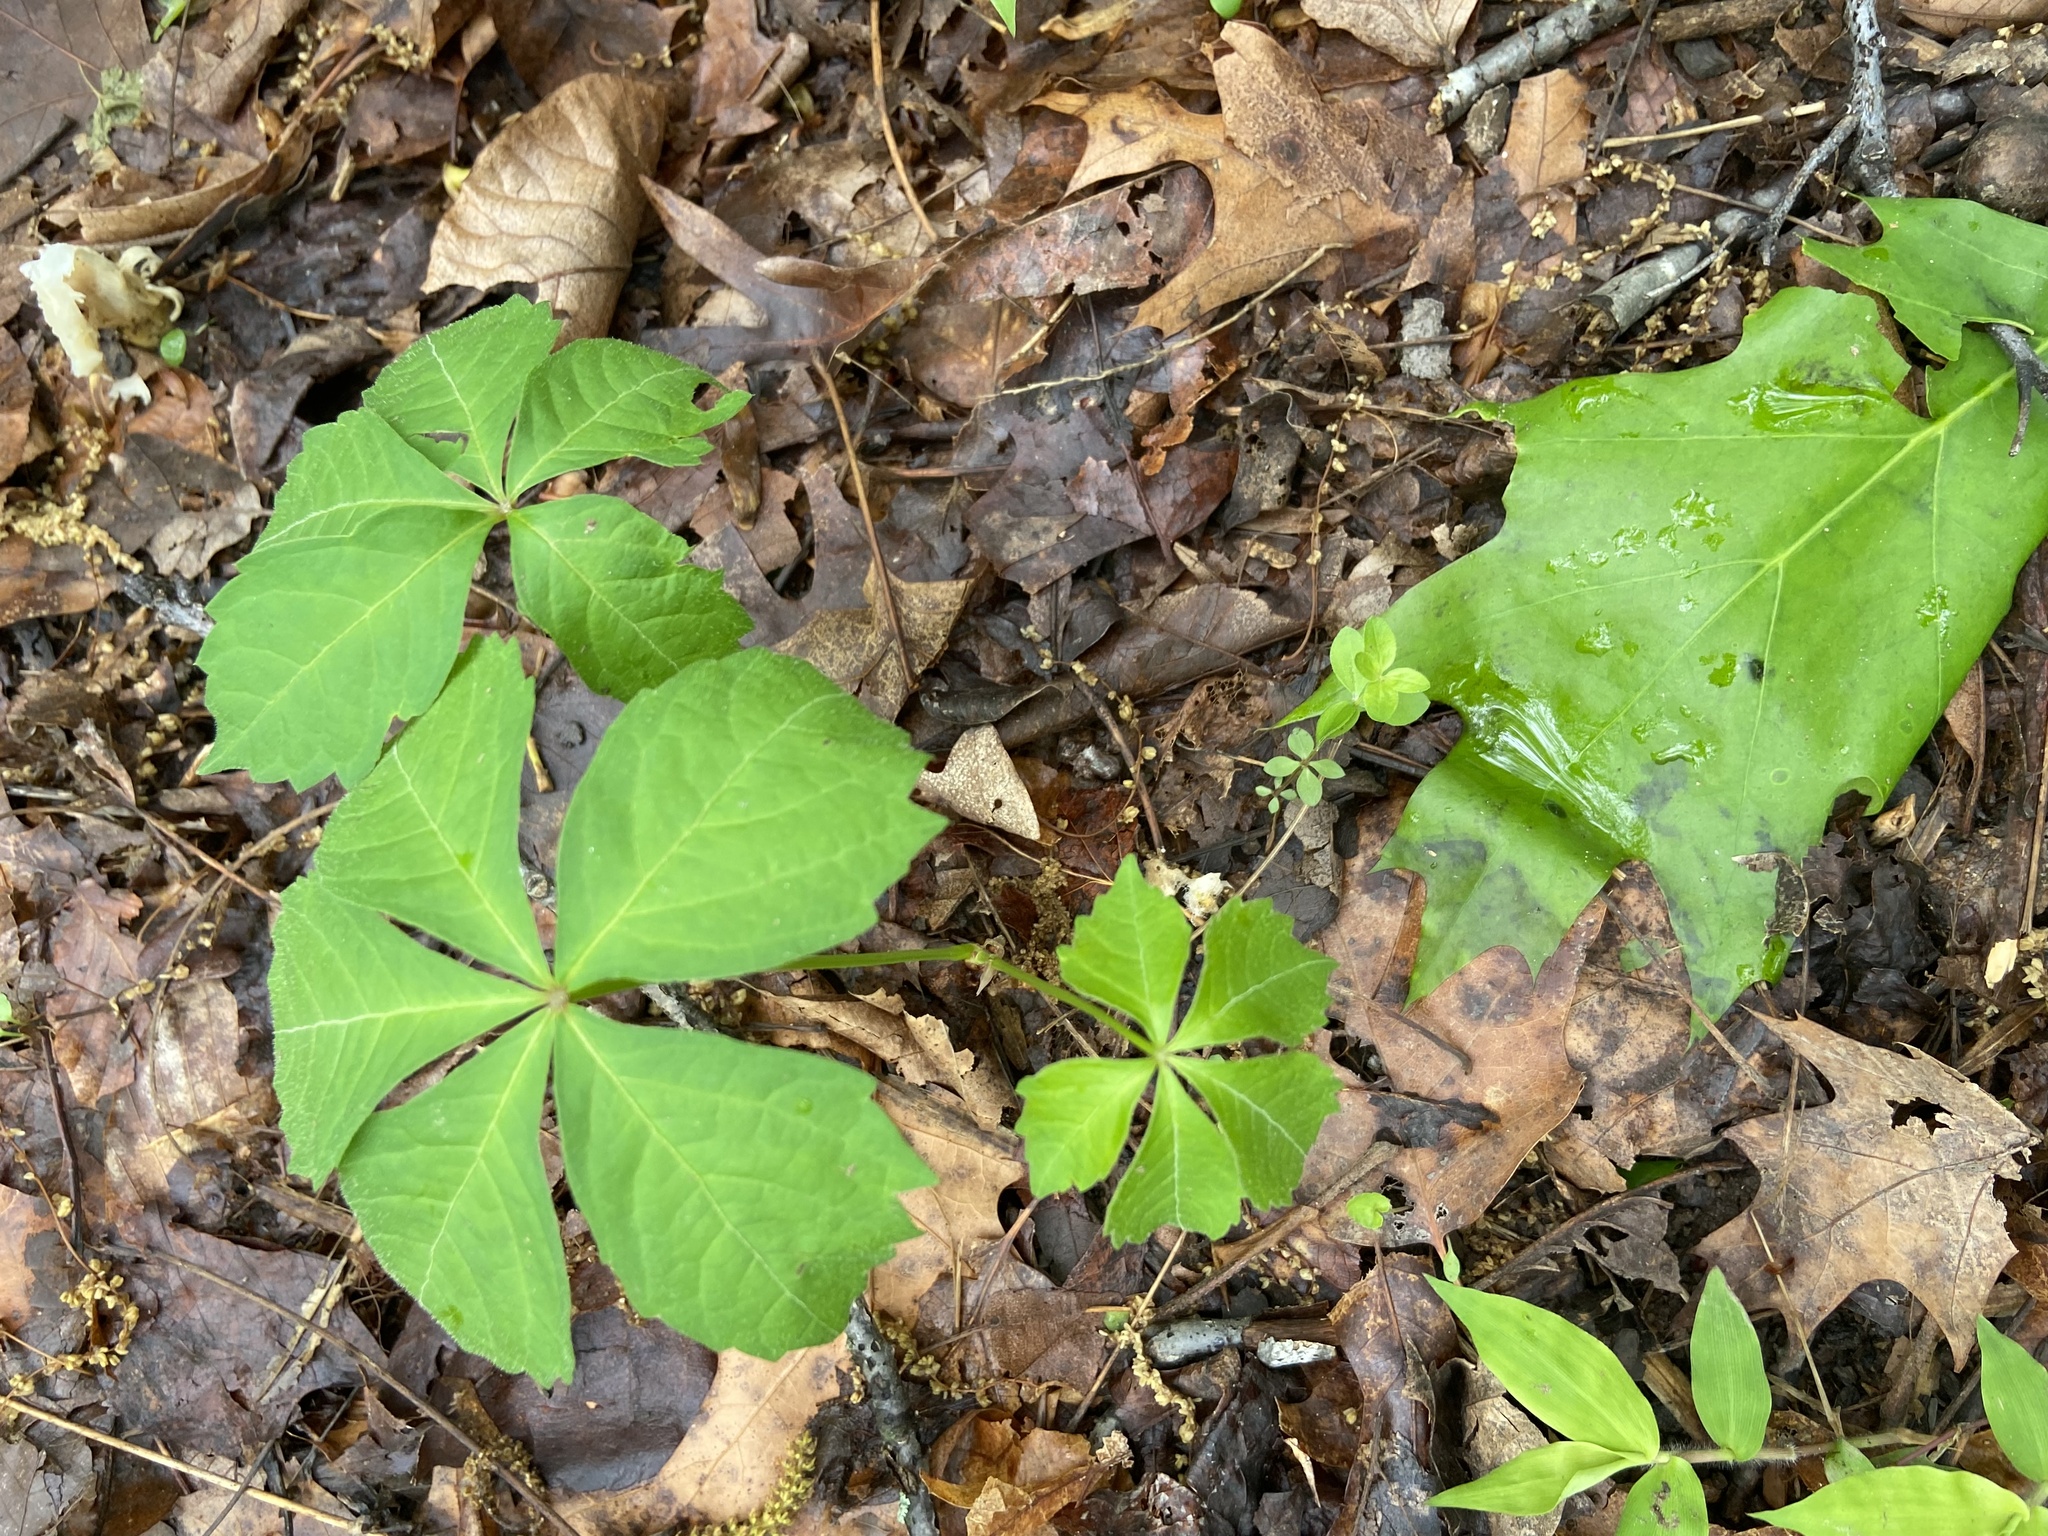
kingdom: Plantae
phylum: Tracheophyta
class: Magnoliopsida
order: Vitales
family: Vitaceae
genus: Parthenocissus
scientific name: Parthenocissus quinquefolia
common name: Virginia-creeper
